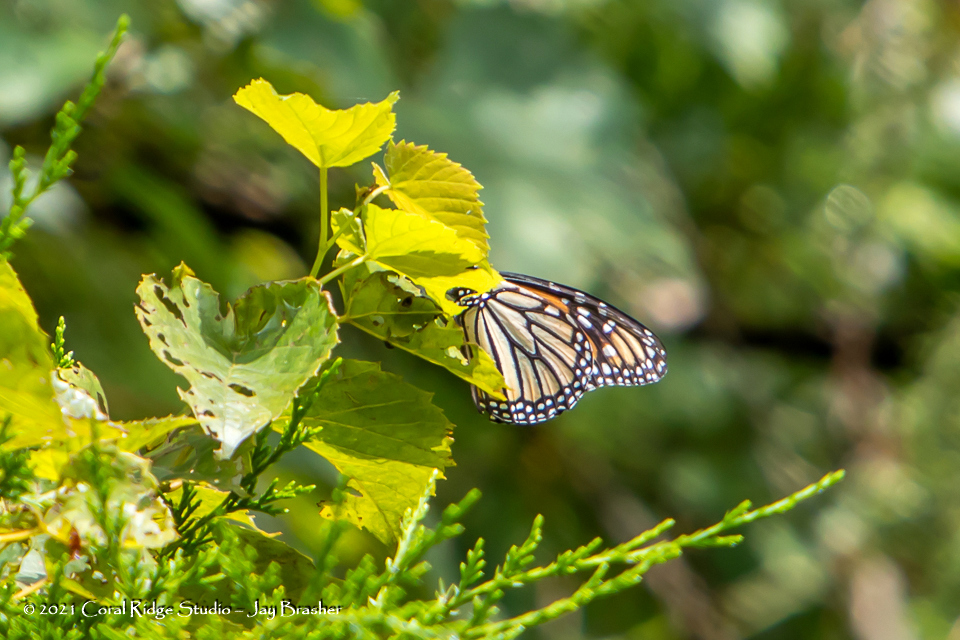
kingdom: Animalia
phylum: Arthropoda
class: Insecta
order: Lepidoptera
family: Nymphalidae
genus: Danaus
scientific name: Danaus plexippus
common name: Monarch
